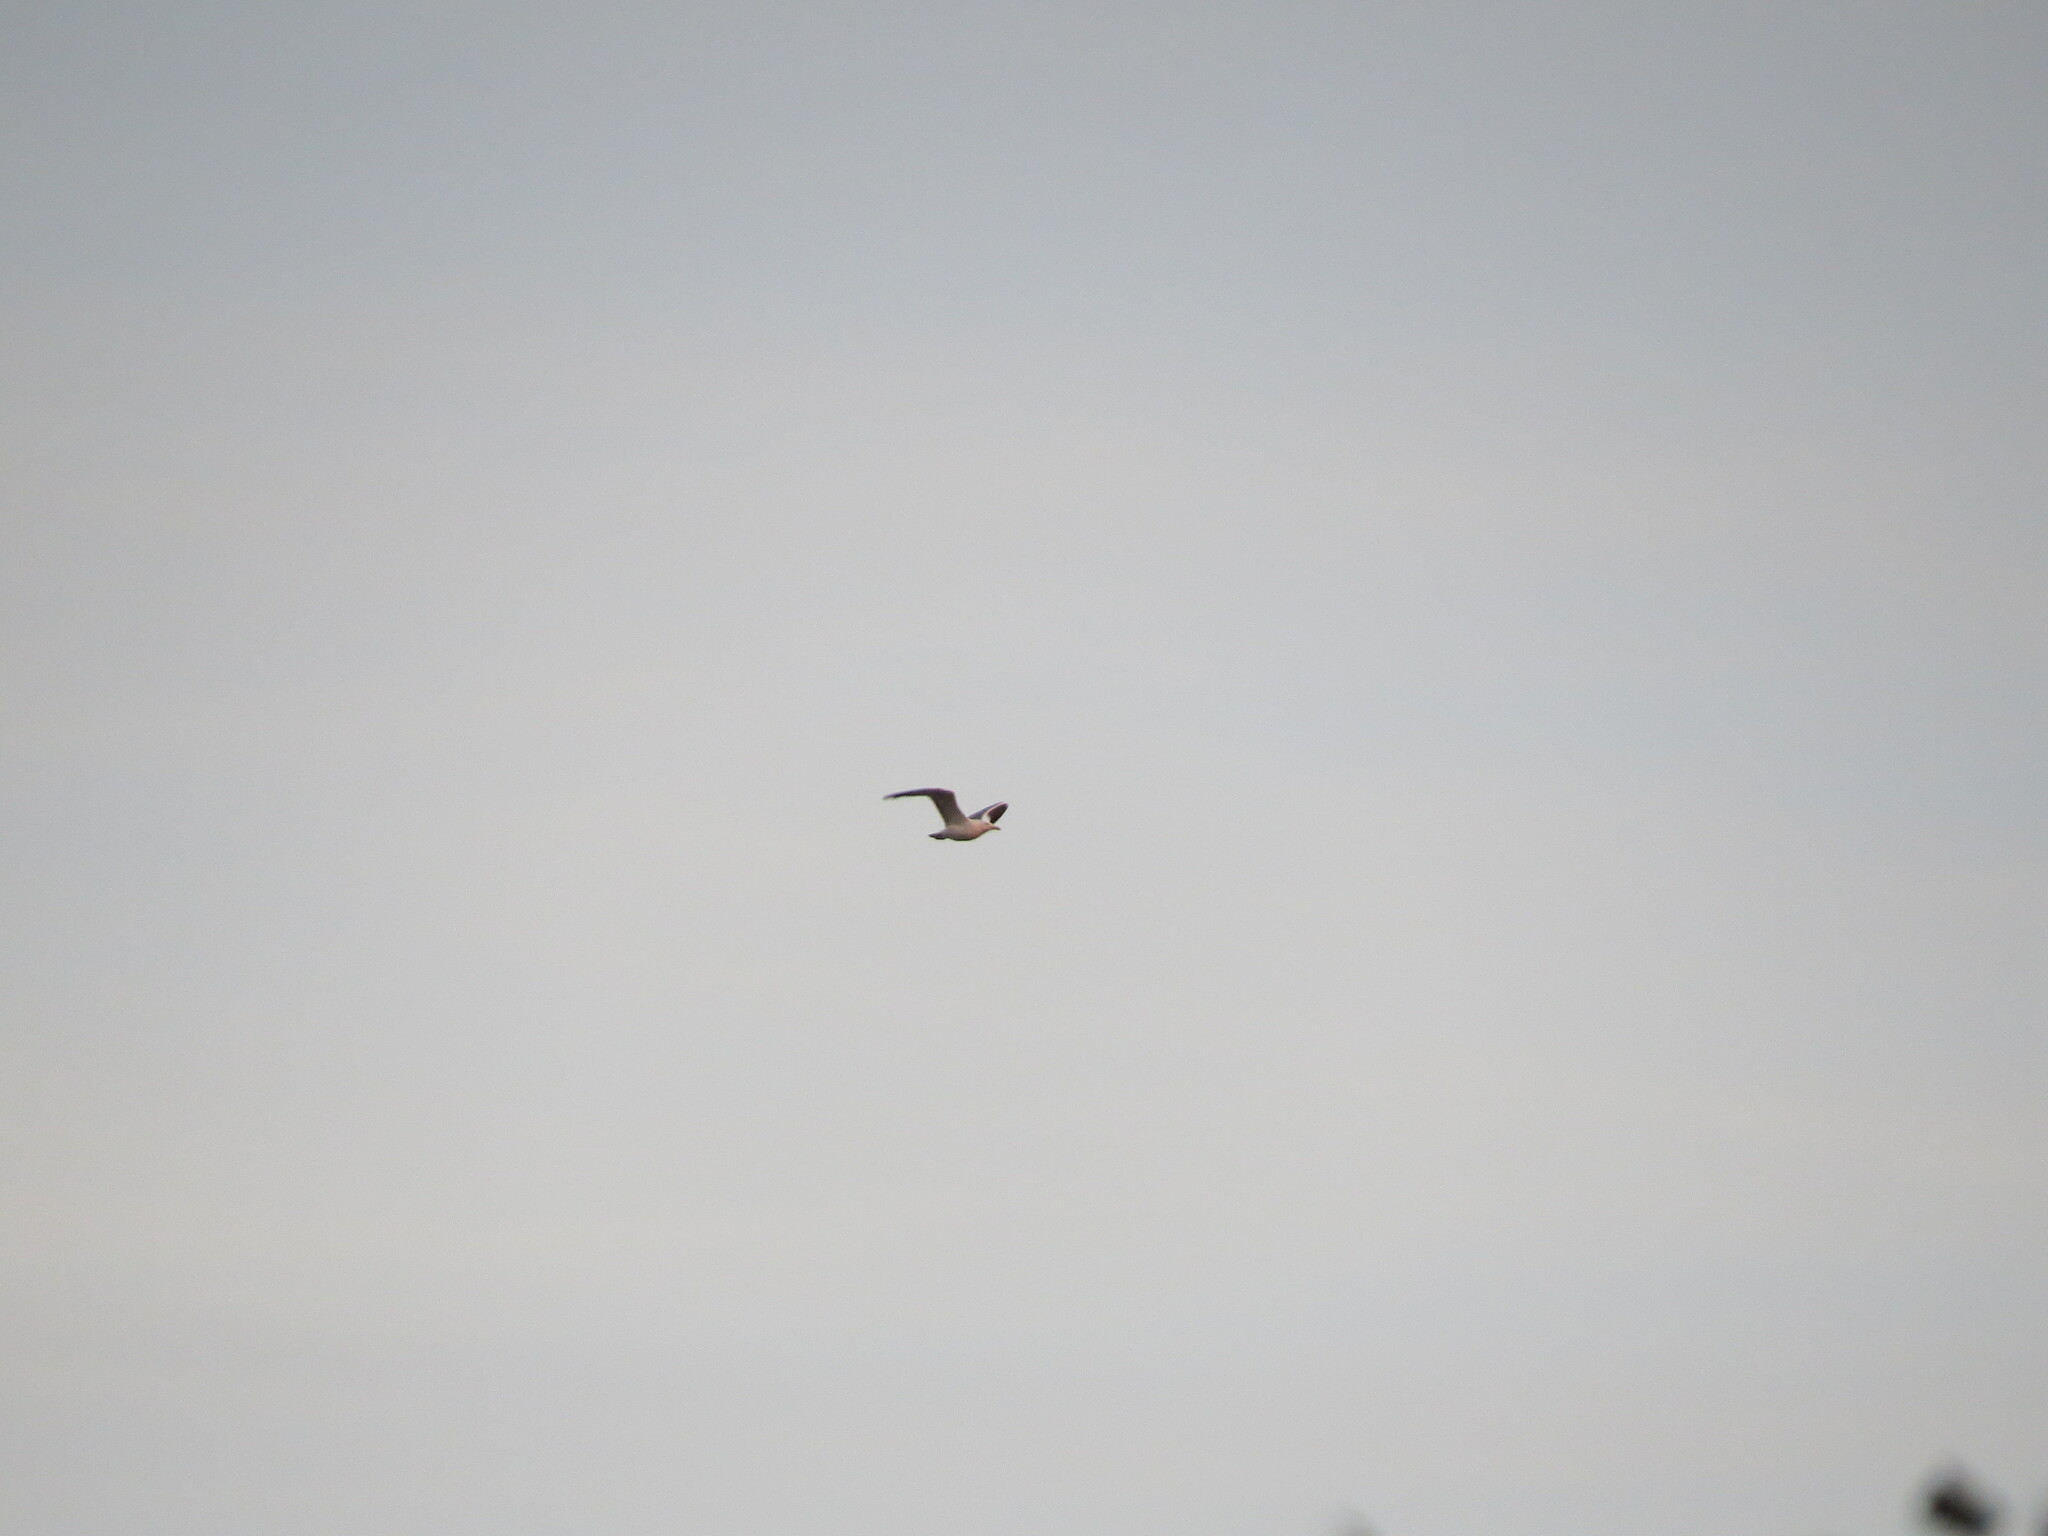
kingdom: Animalia
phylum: Chordata
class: Aves
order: Charadriiformes
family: Laridae
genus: Larus
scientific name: Larus fuscus
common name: Lesser black-backed gull
